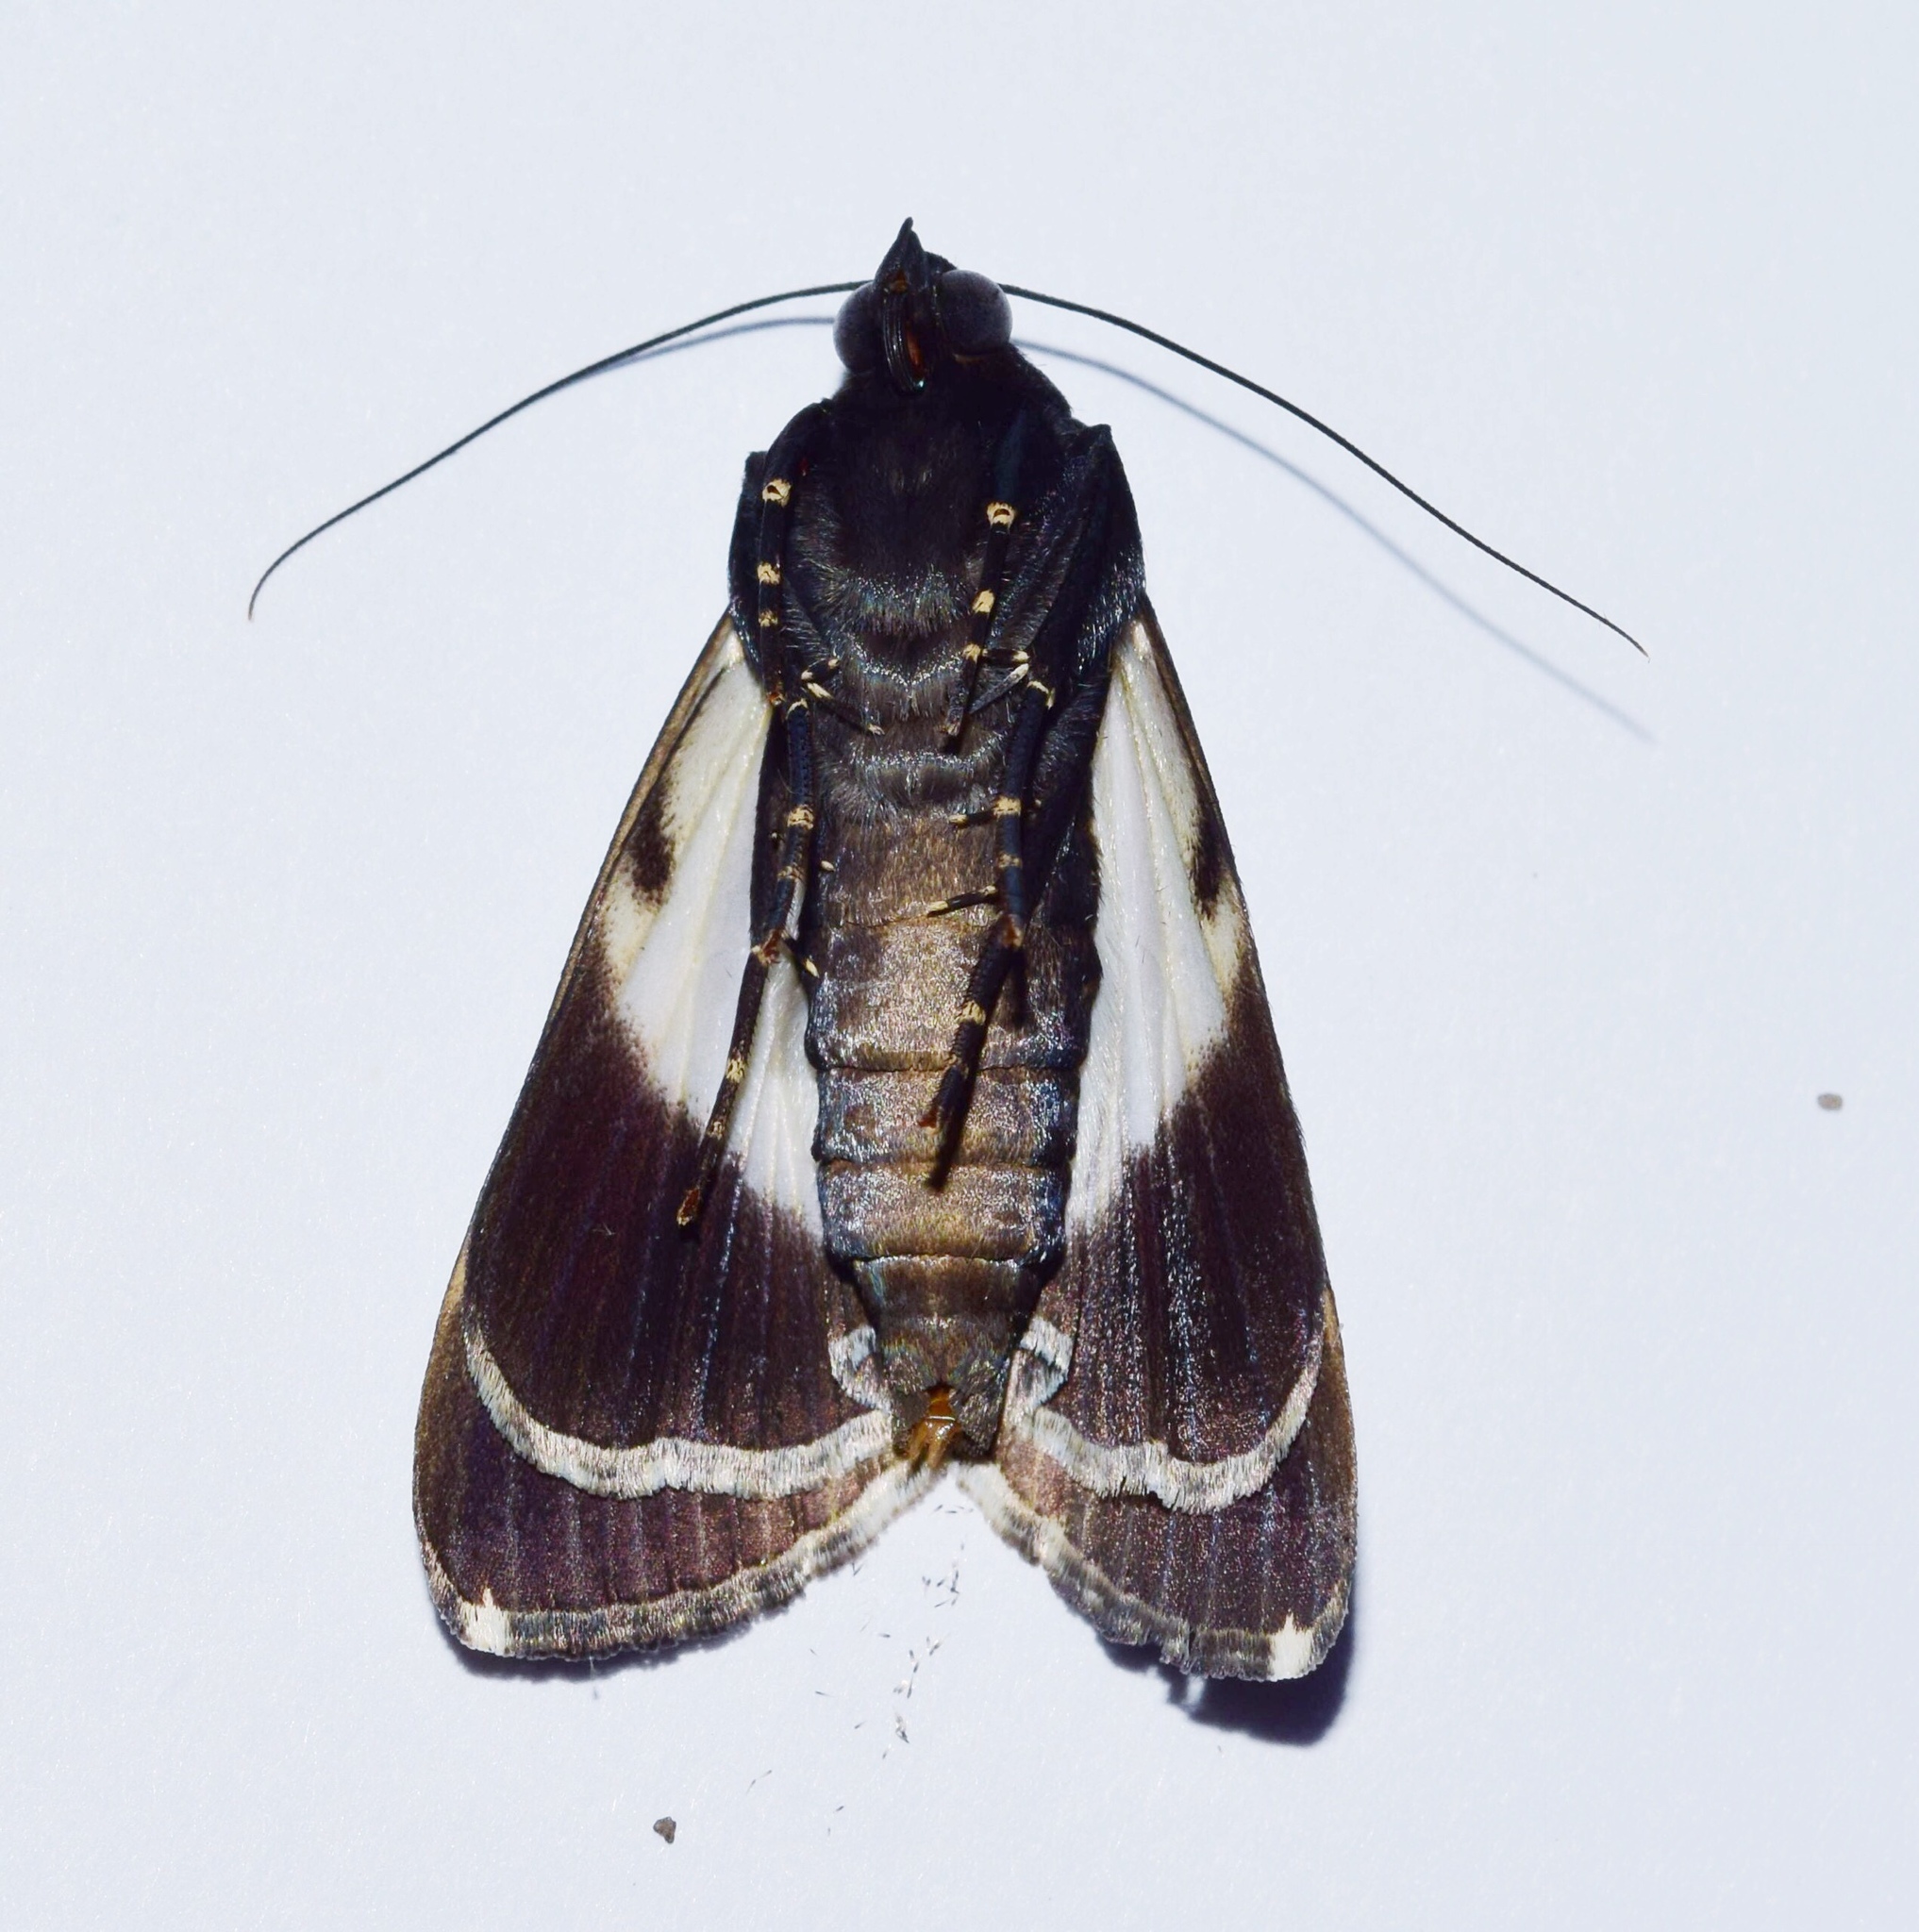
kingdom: Animalia
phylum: Arthropoda
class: Insecta
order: Lepidoptera
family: Erebidae
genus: Audea
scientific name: Audea bipunctata
